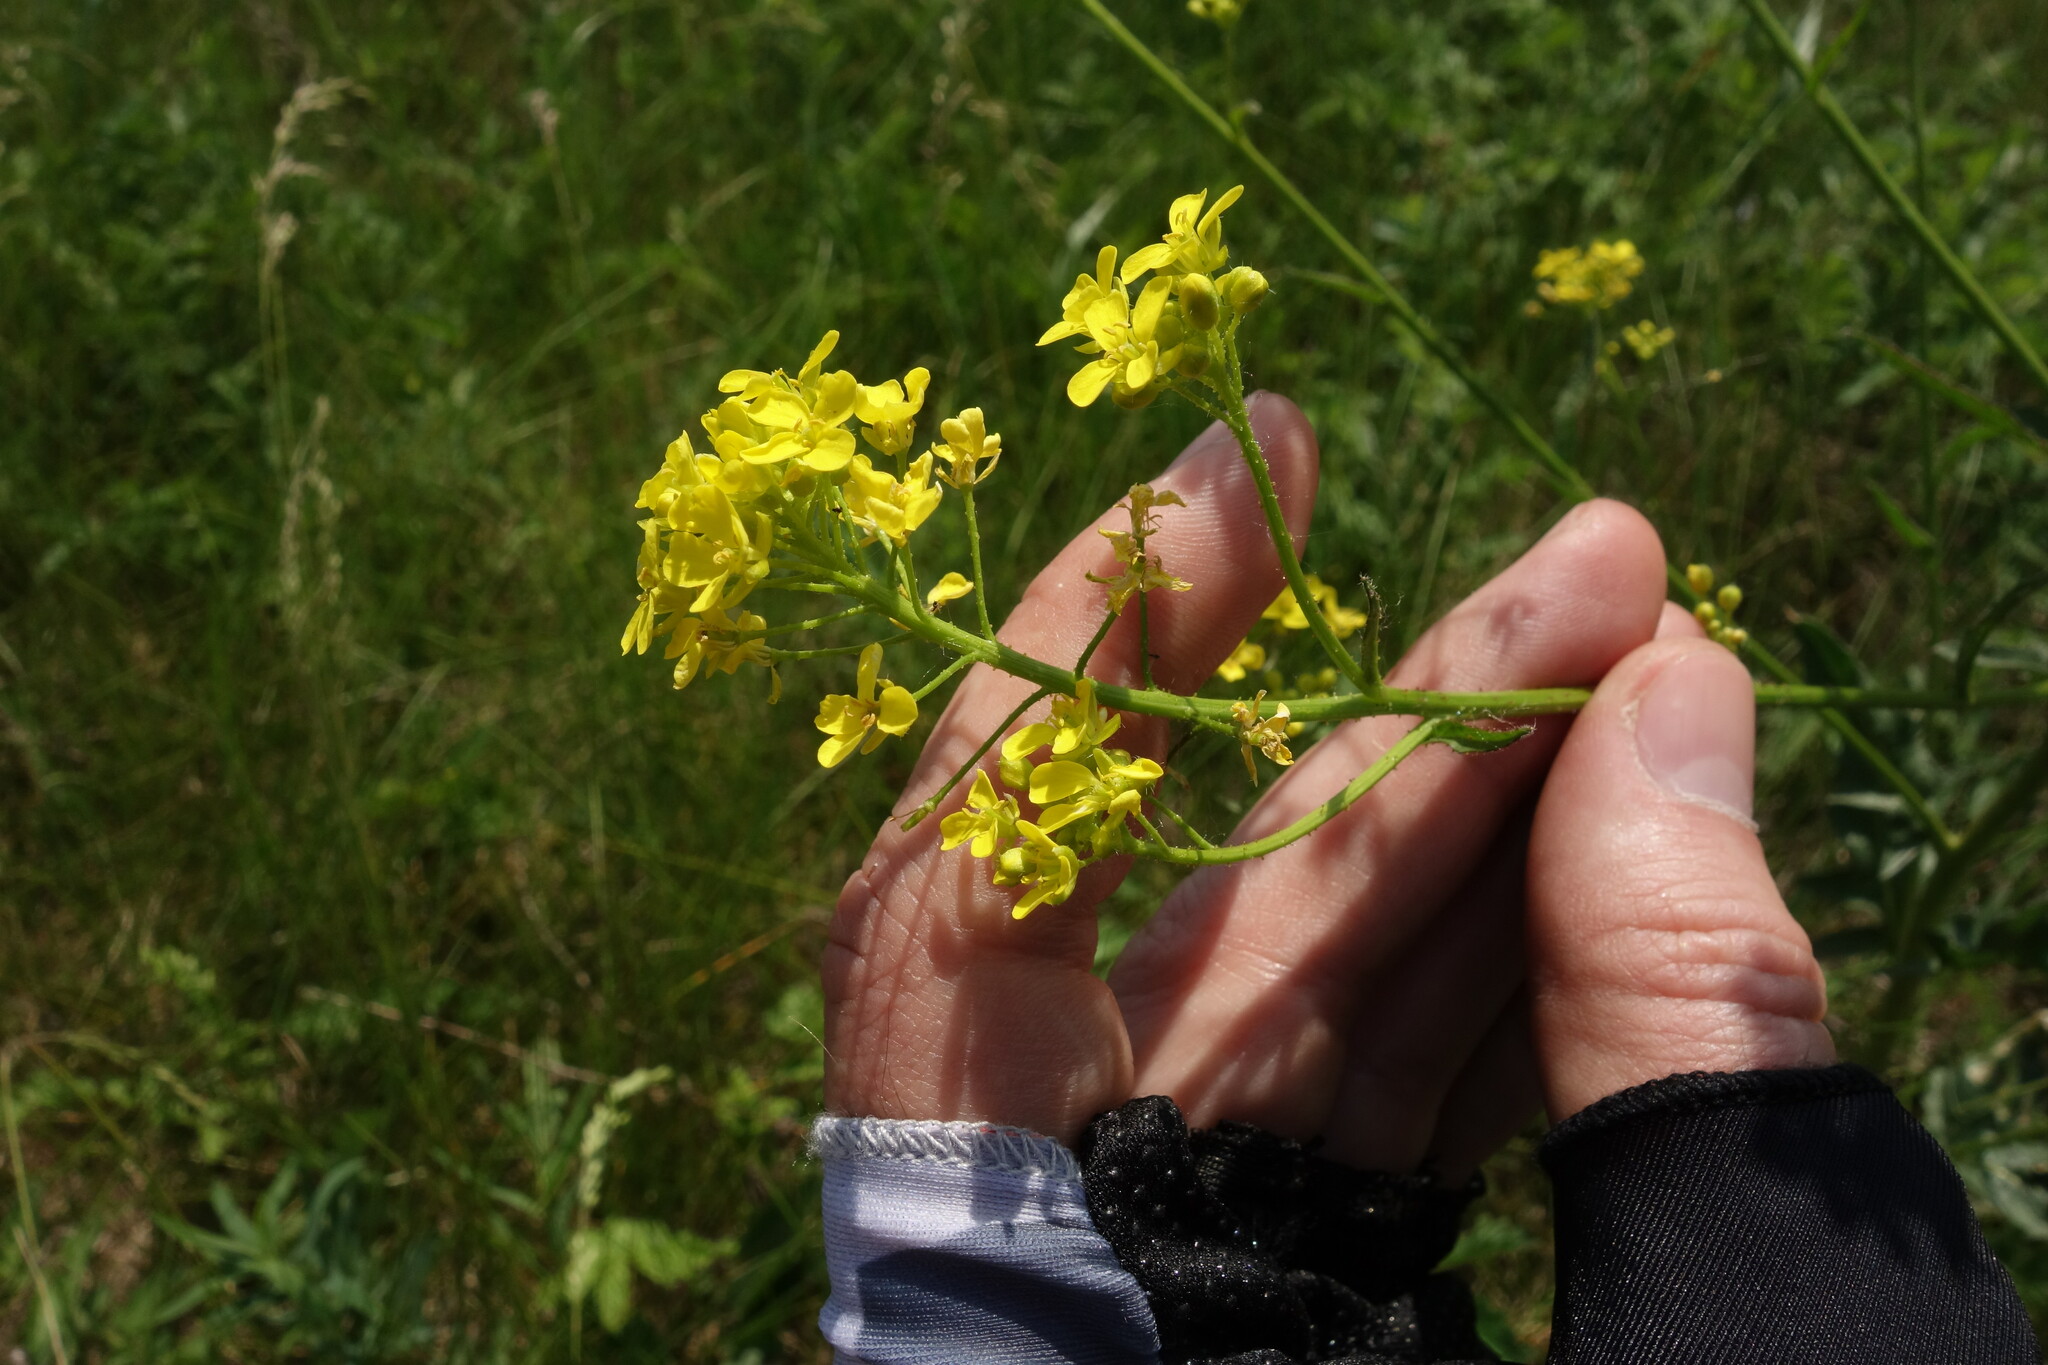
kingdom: Plantae
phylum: Tracheophyta
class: Magnoliopsida
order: Brassicales
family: Brassicaceae
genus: Bunias
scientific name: Bunias orientalis
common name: Warty-cabbage
